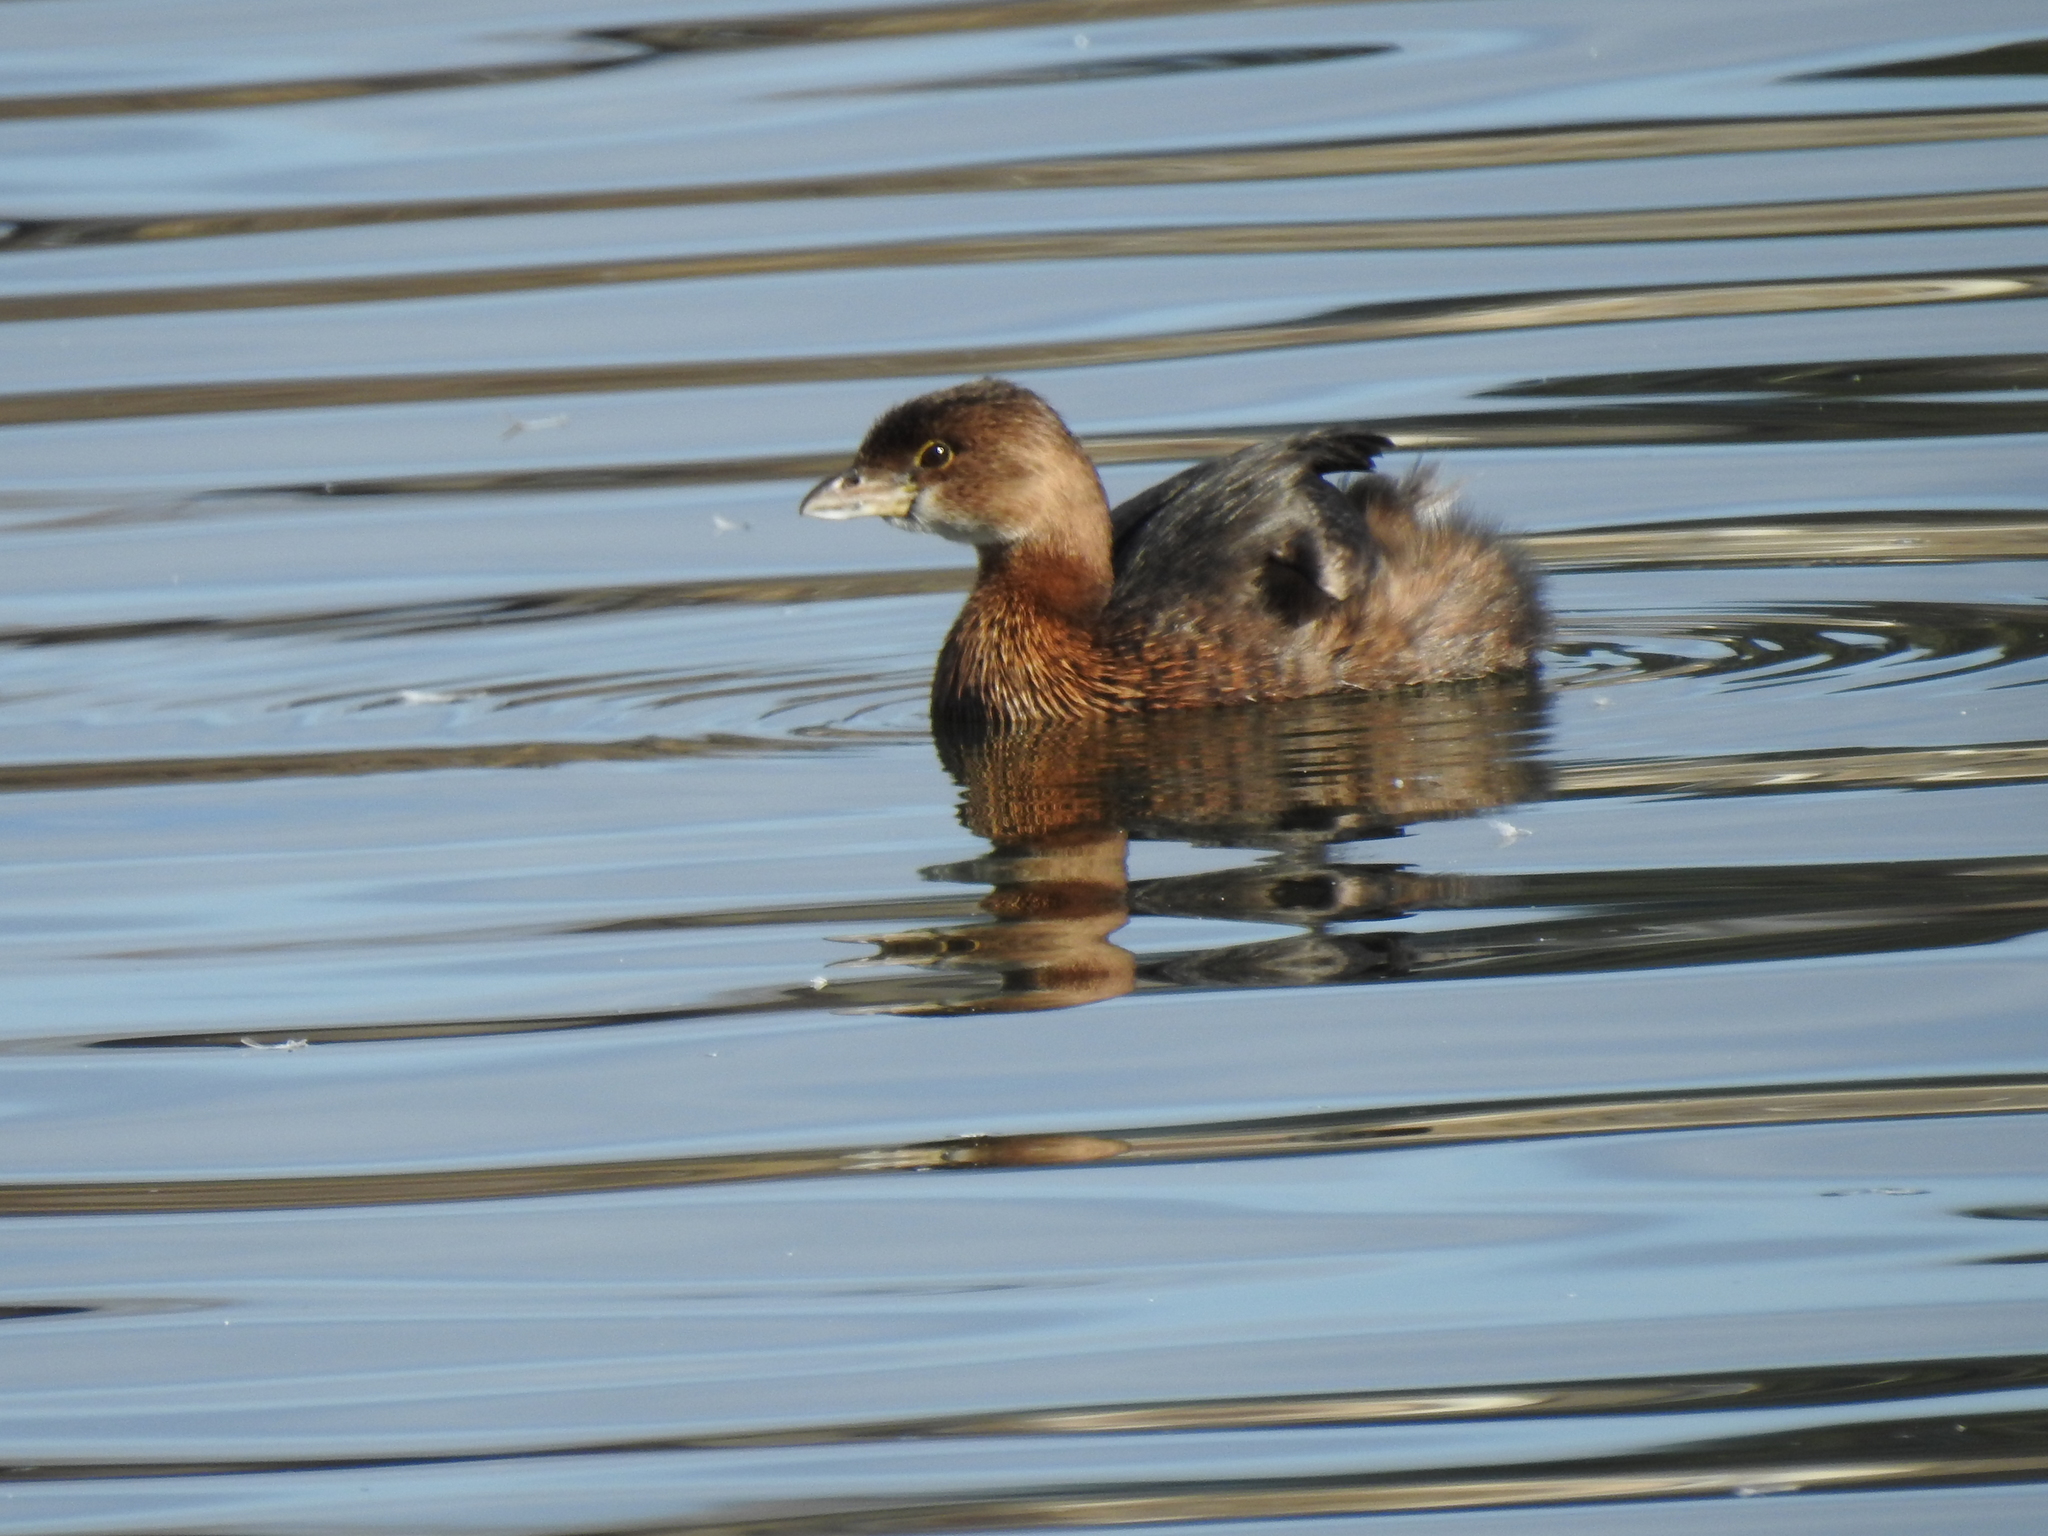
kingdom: Animalia
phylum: Chordata
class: Aves
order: Podicipediformes
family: Podicipedidae
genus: Podilymbus
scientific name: Podilymbus podiceps
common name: Pied-billed grebe
